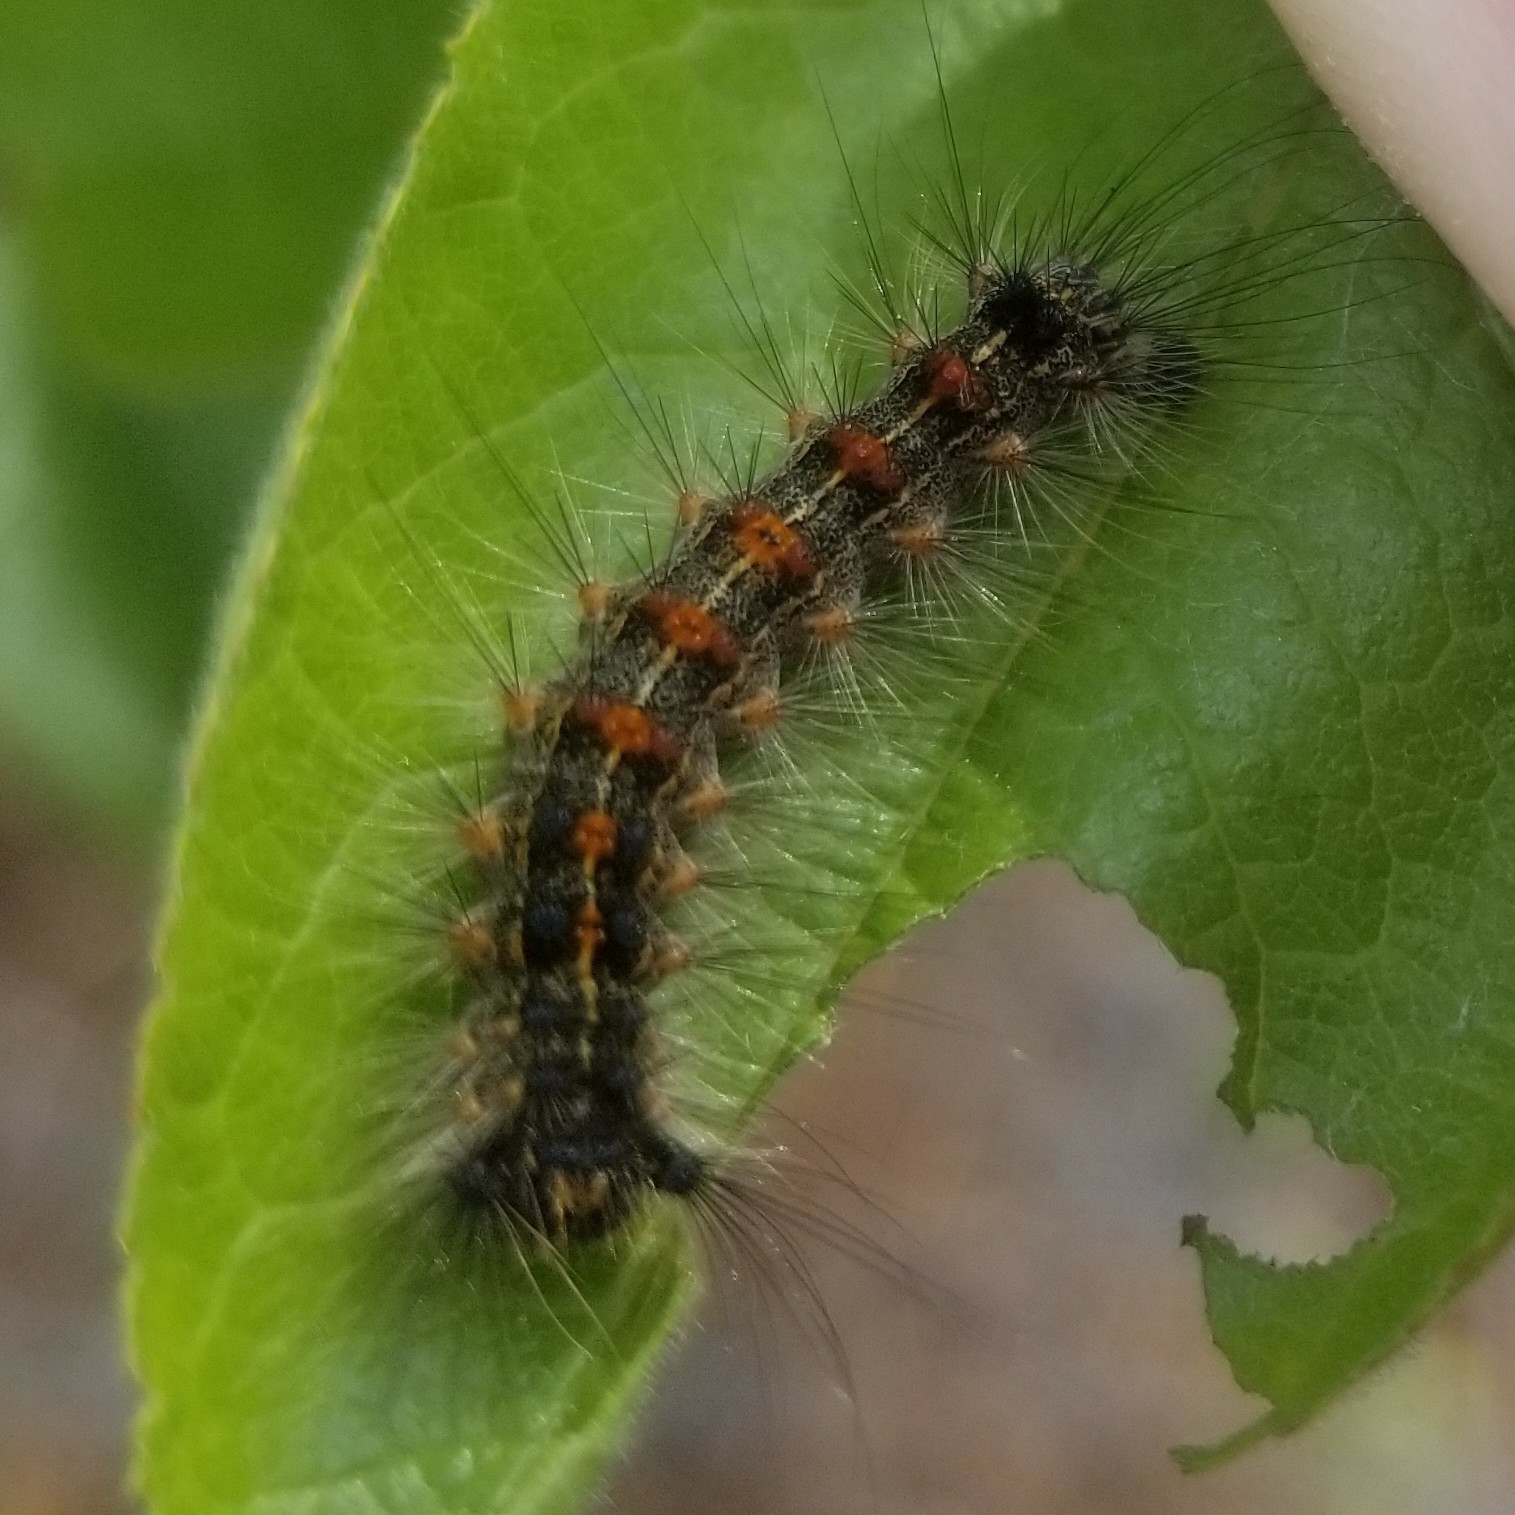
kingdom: Animalia
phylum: Arthropoda
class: Insecta
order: Lepidoptera
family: Erebidae
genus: Lymantria
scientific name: Lymantria dispar
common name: Gypsy moth
